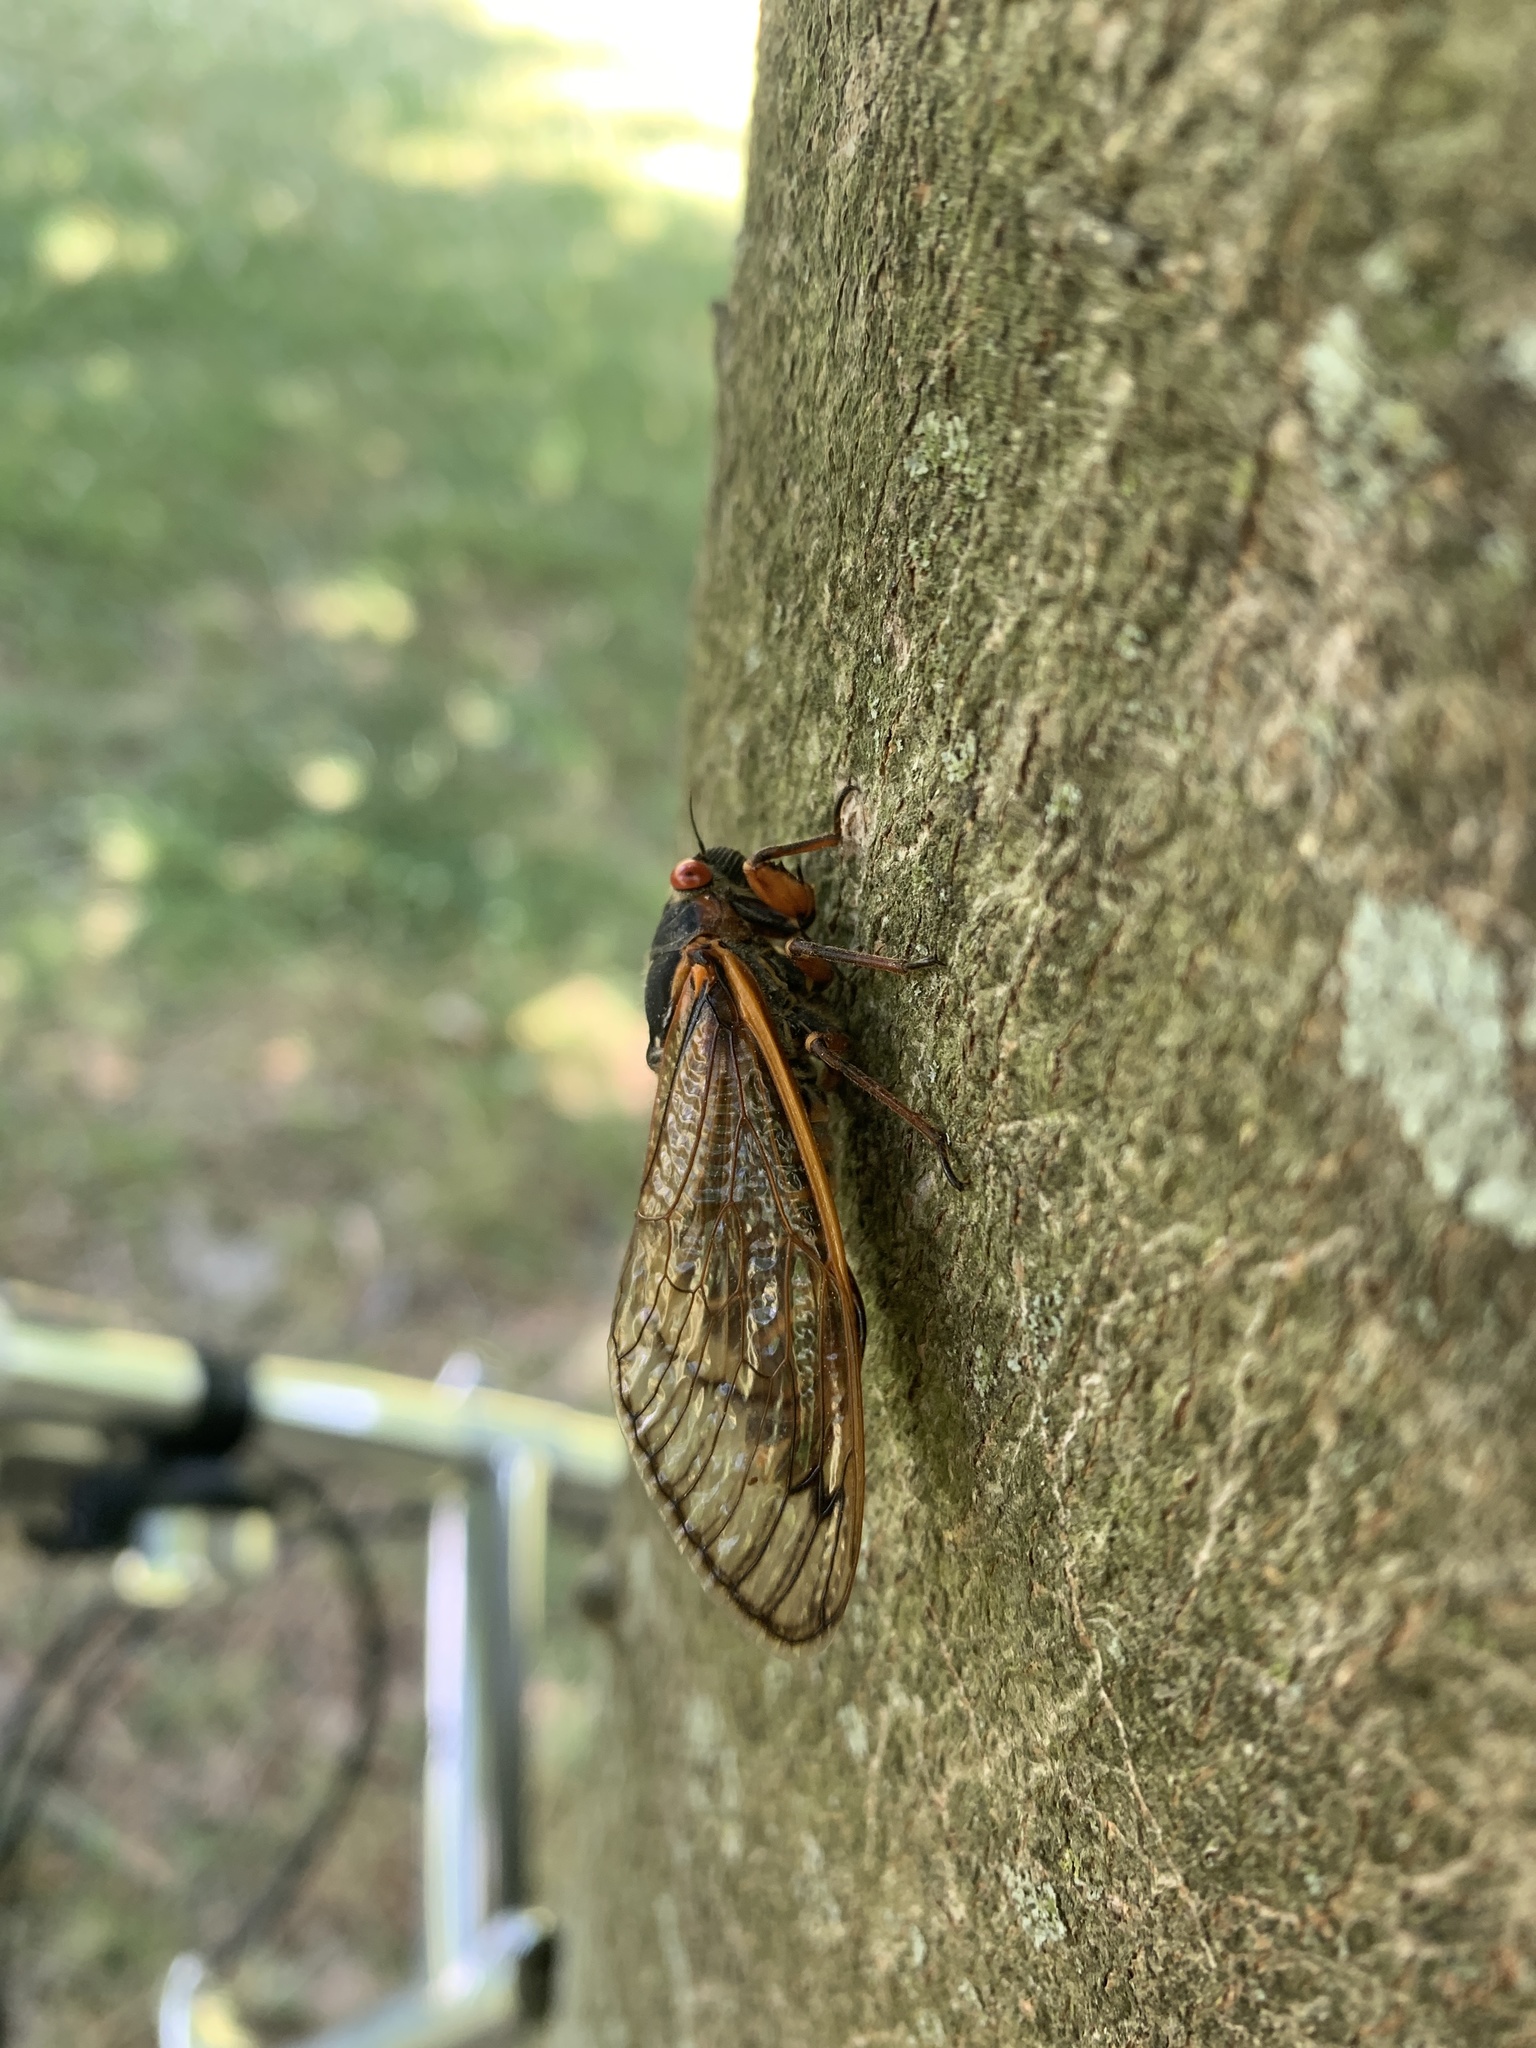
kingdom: Animalia
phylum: Arthropoda
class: Insecta
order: Hemiptera
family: Cicadidae
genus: Magicicada
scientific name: Magicicada septendecim
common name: Periodical cicada
